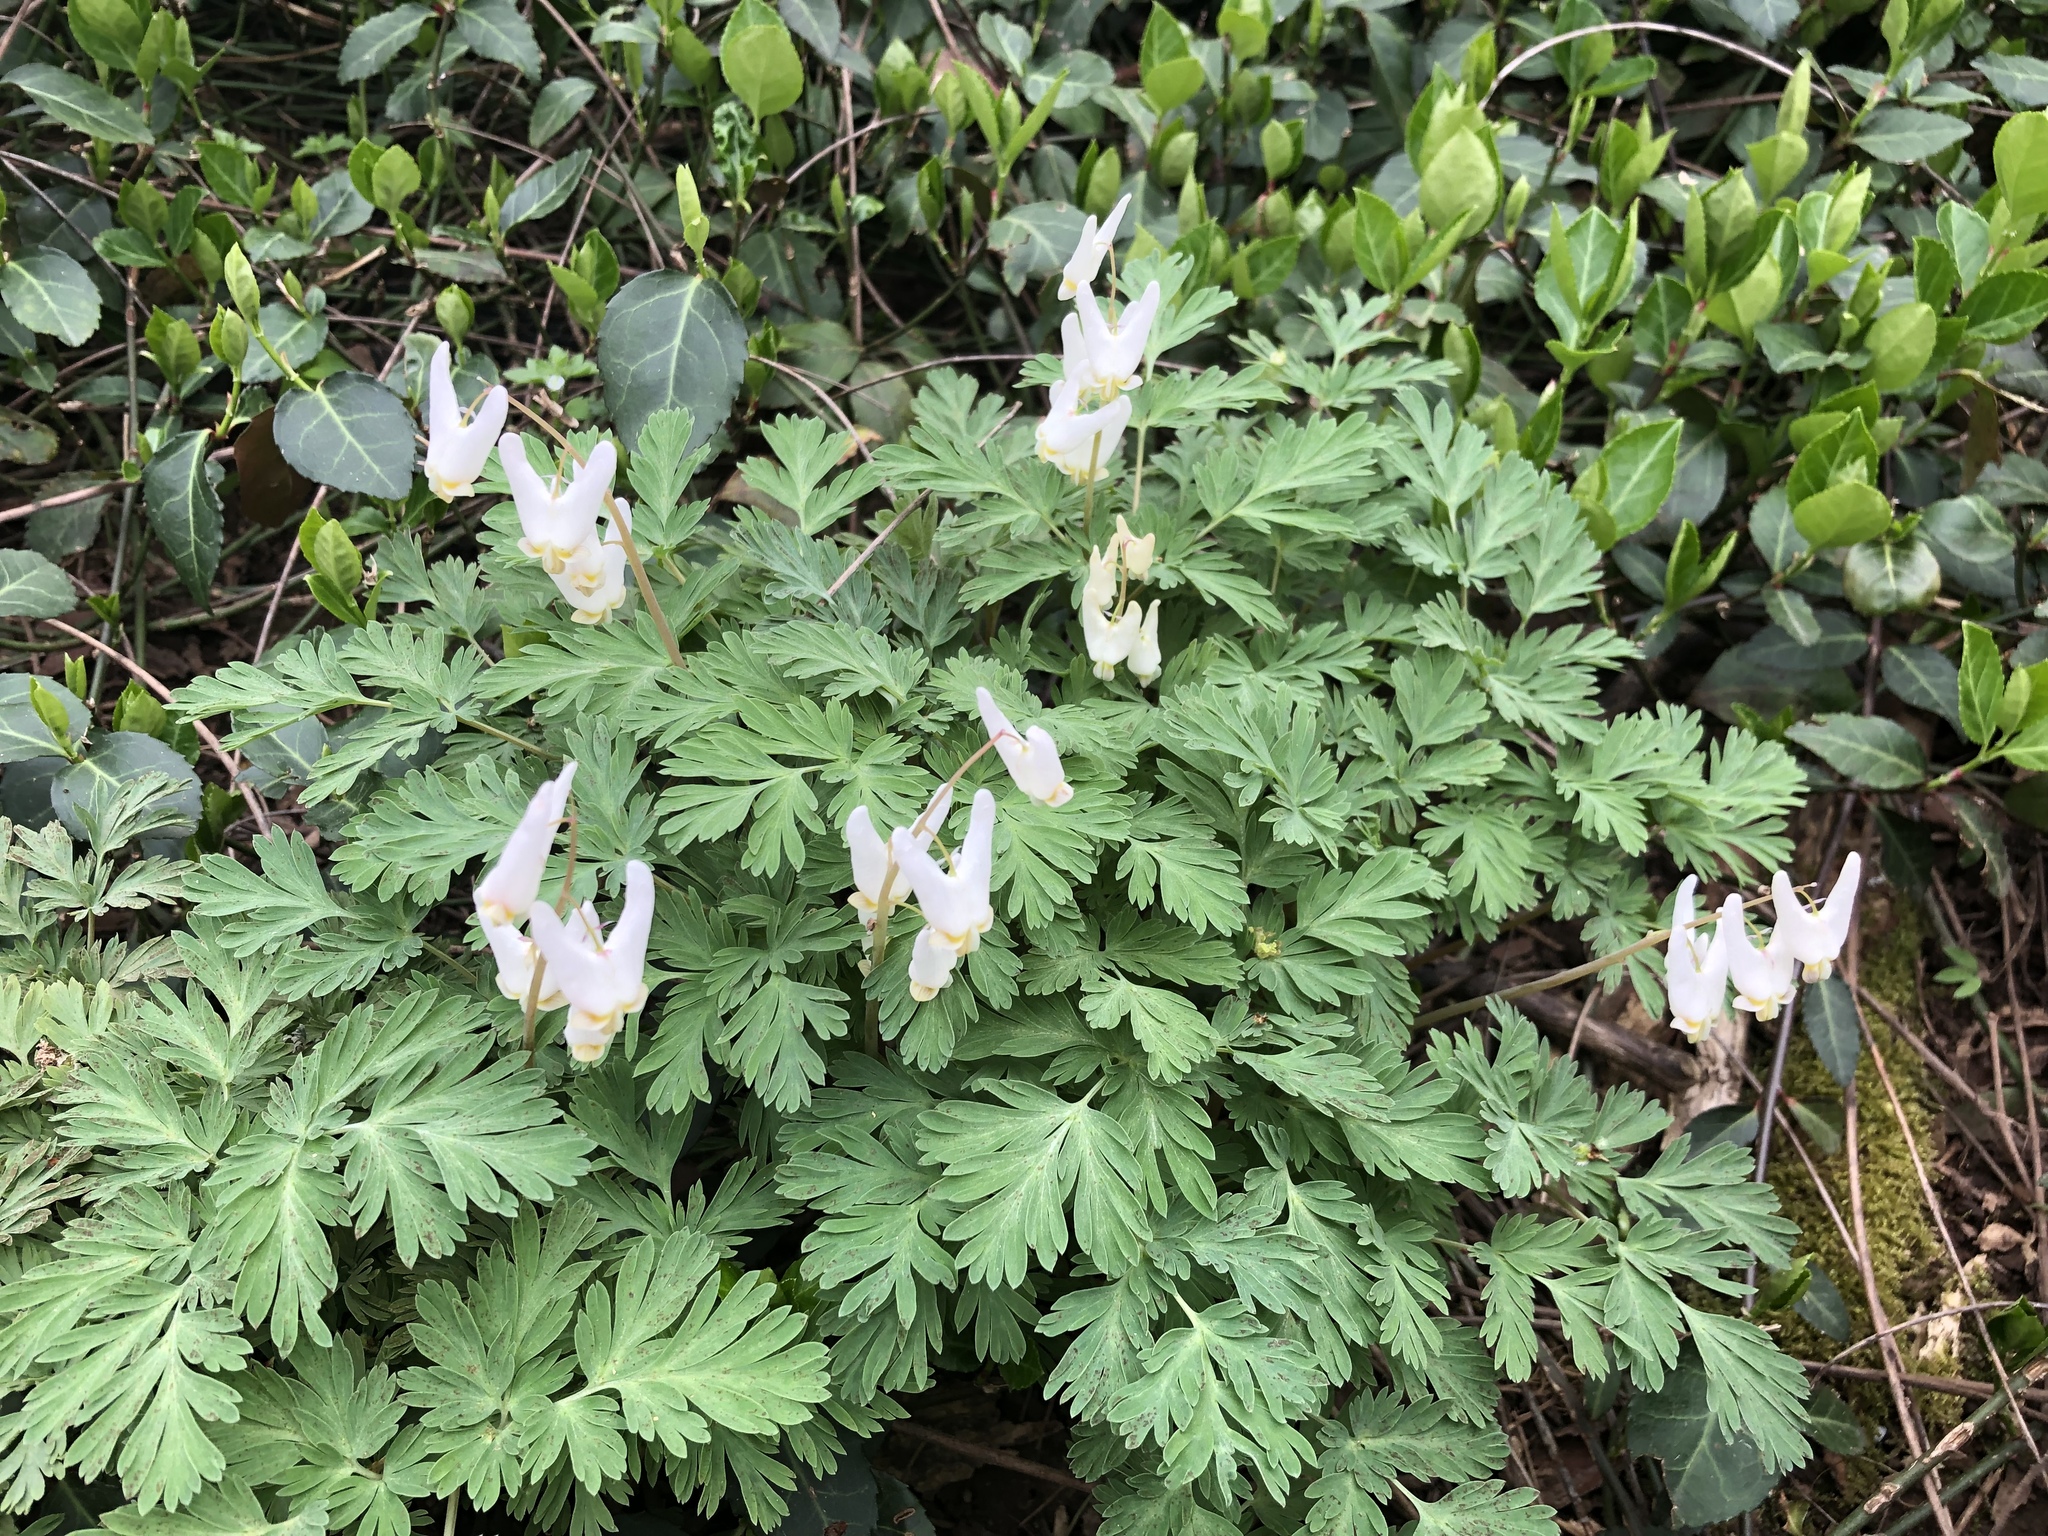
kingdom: Plantae
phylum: Tracheophyta
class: Magnoliopsida
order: Ranunculales
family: Papaveraceae
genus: Dicentra
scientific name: Dicentra cucullaria
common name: Dutchman's breeches
